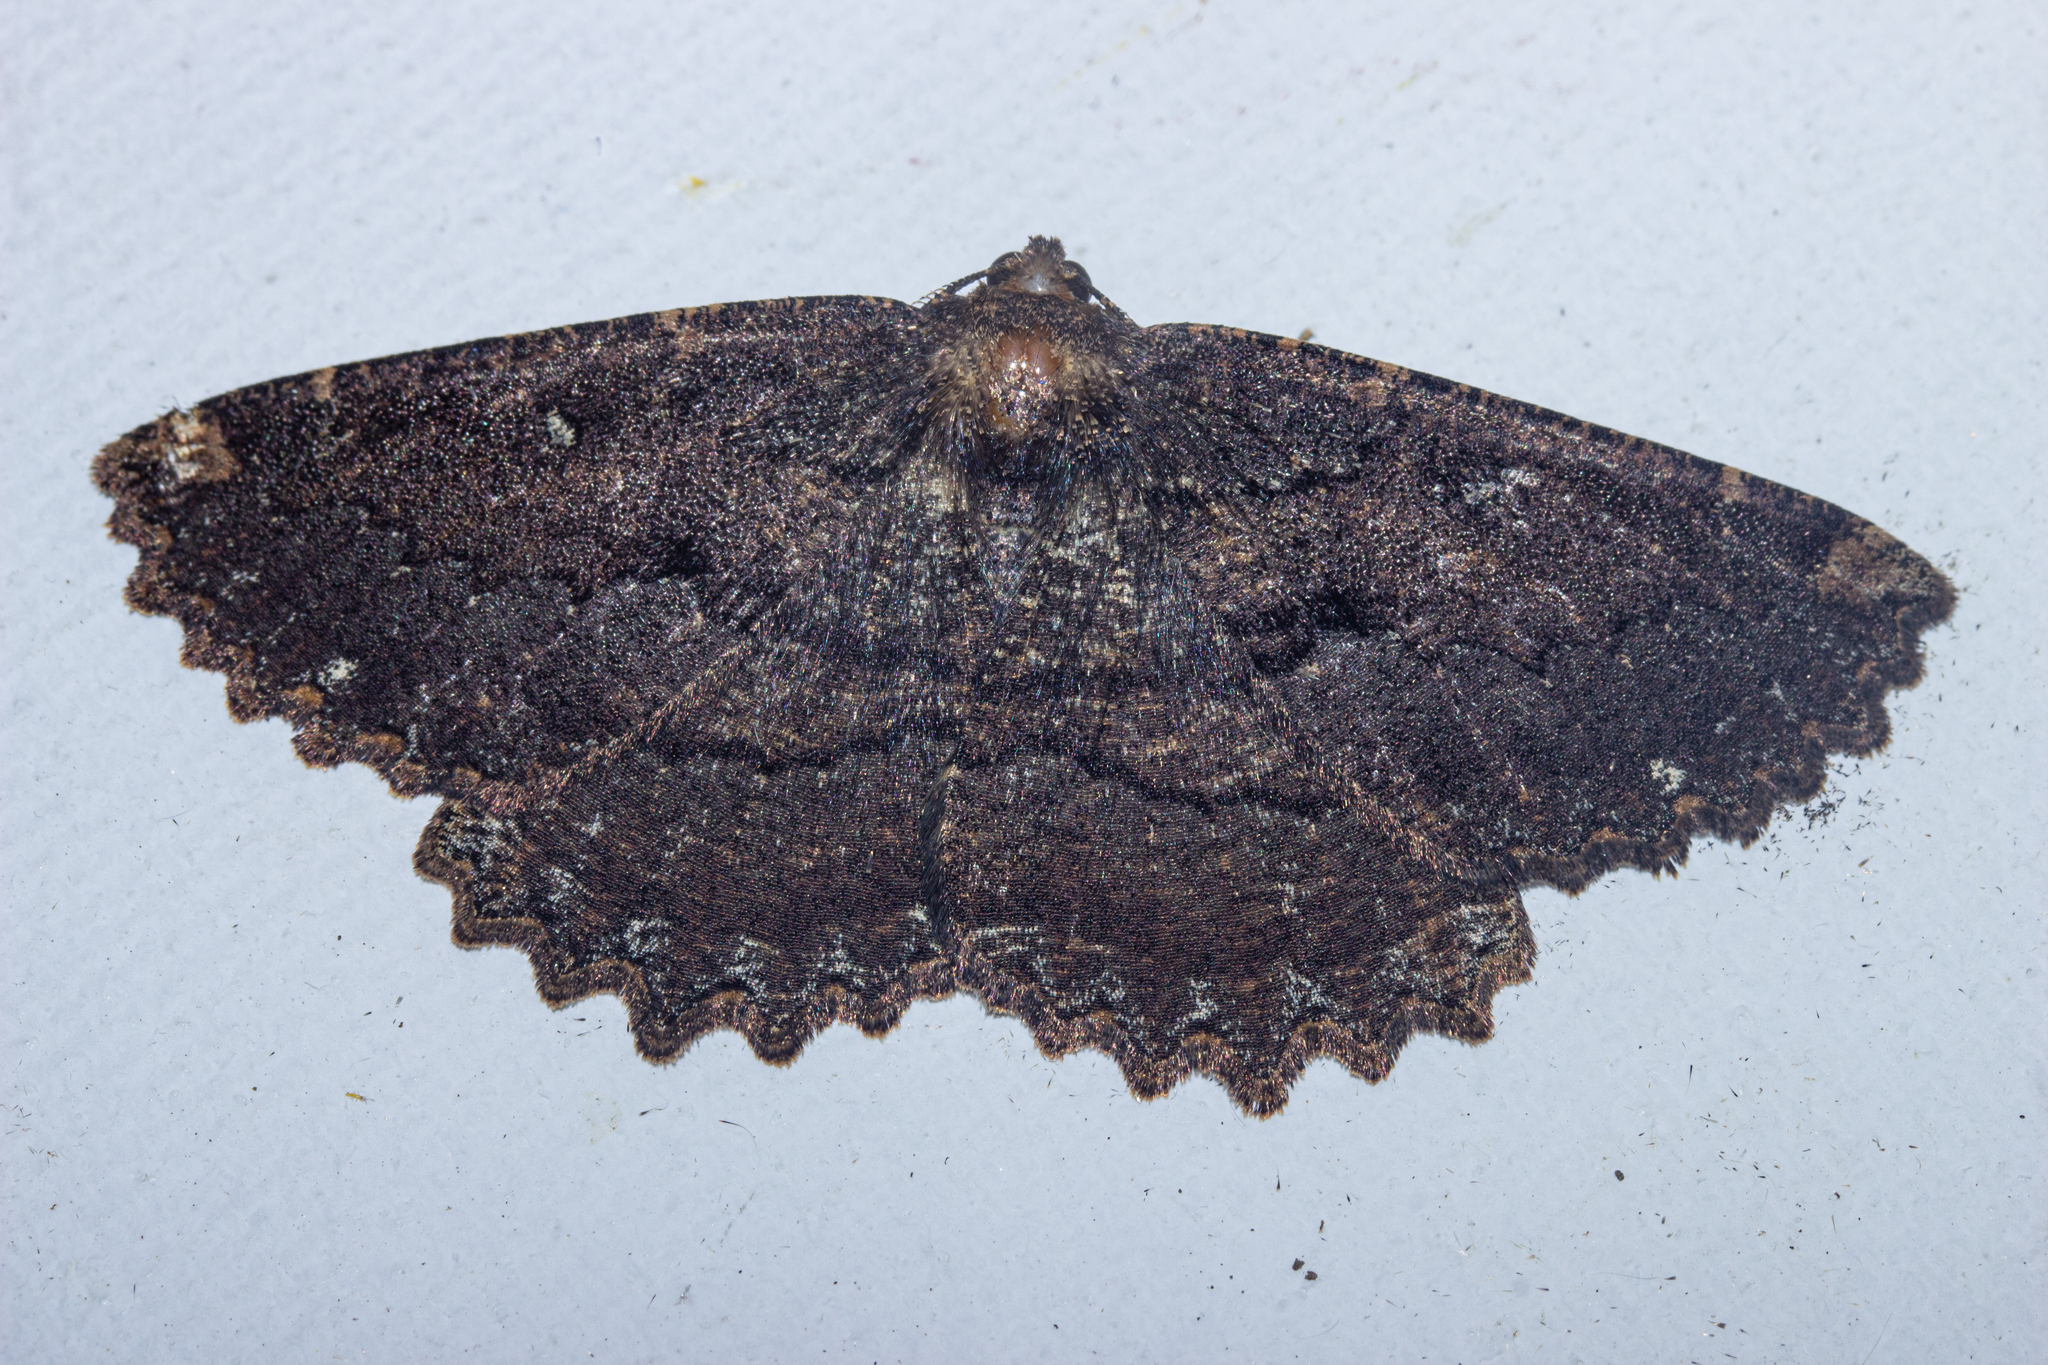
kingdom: Animalia
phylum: Arthropoda
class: Insecta
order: Lepidoptera
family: Geometridae
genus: Gellonia
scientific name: Gellonia dejectaria
